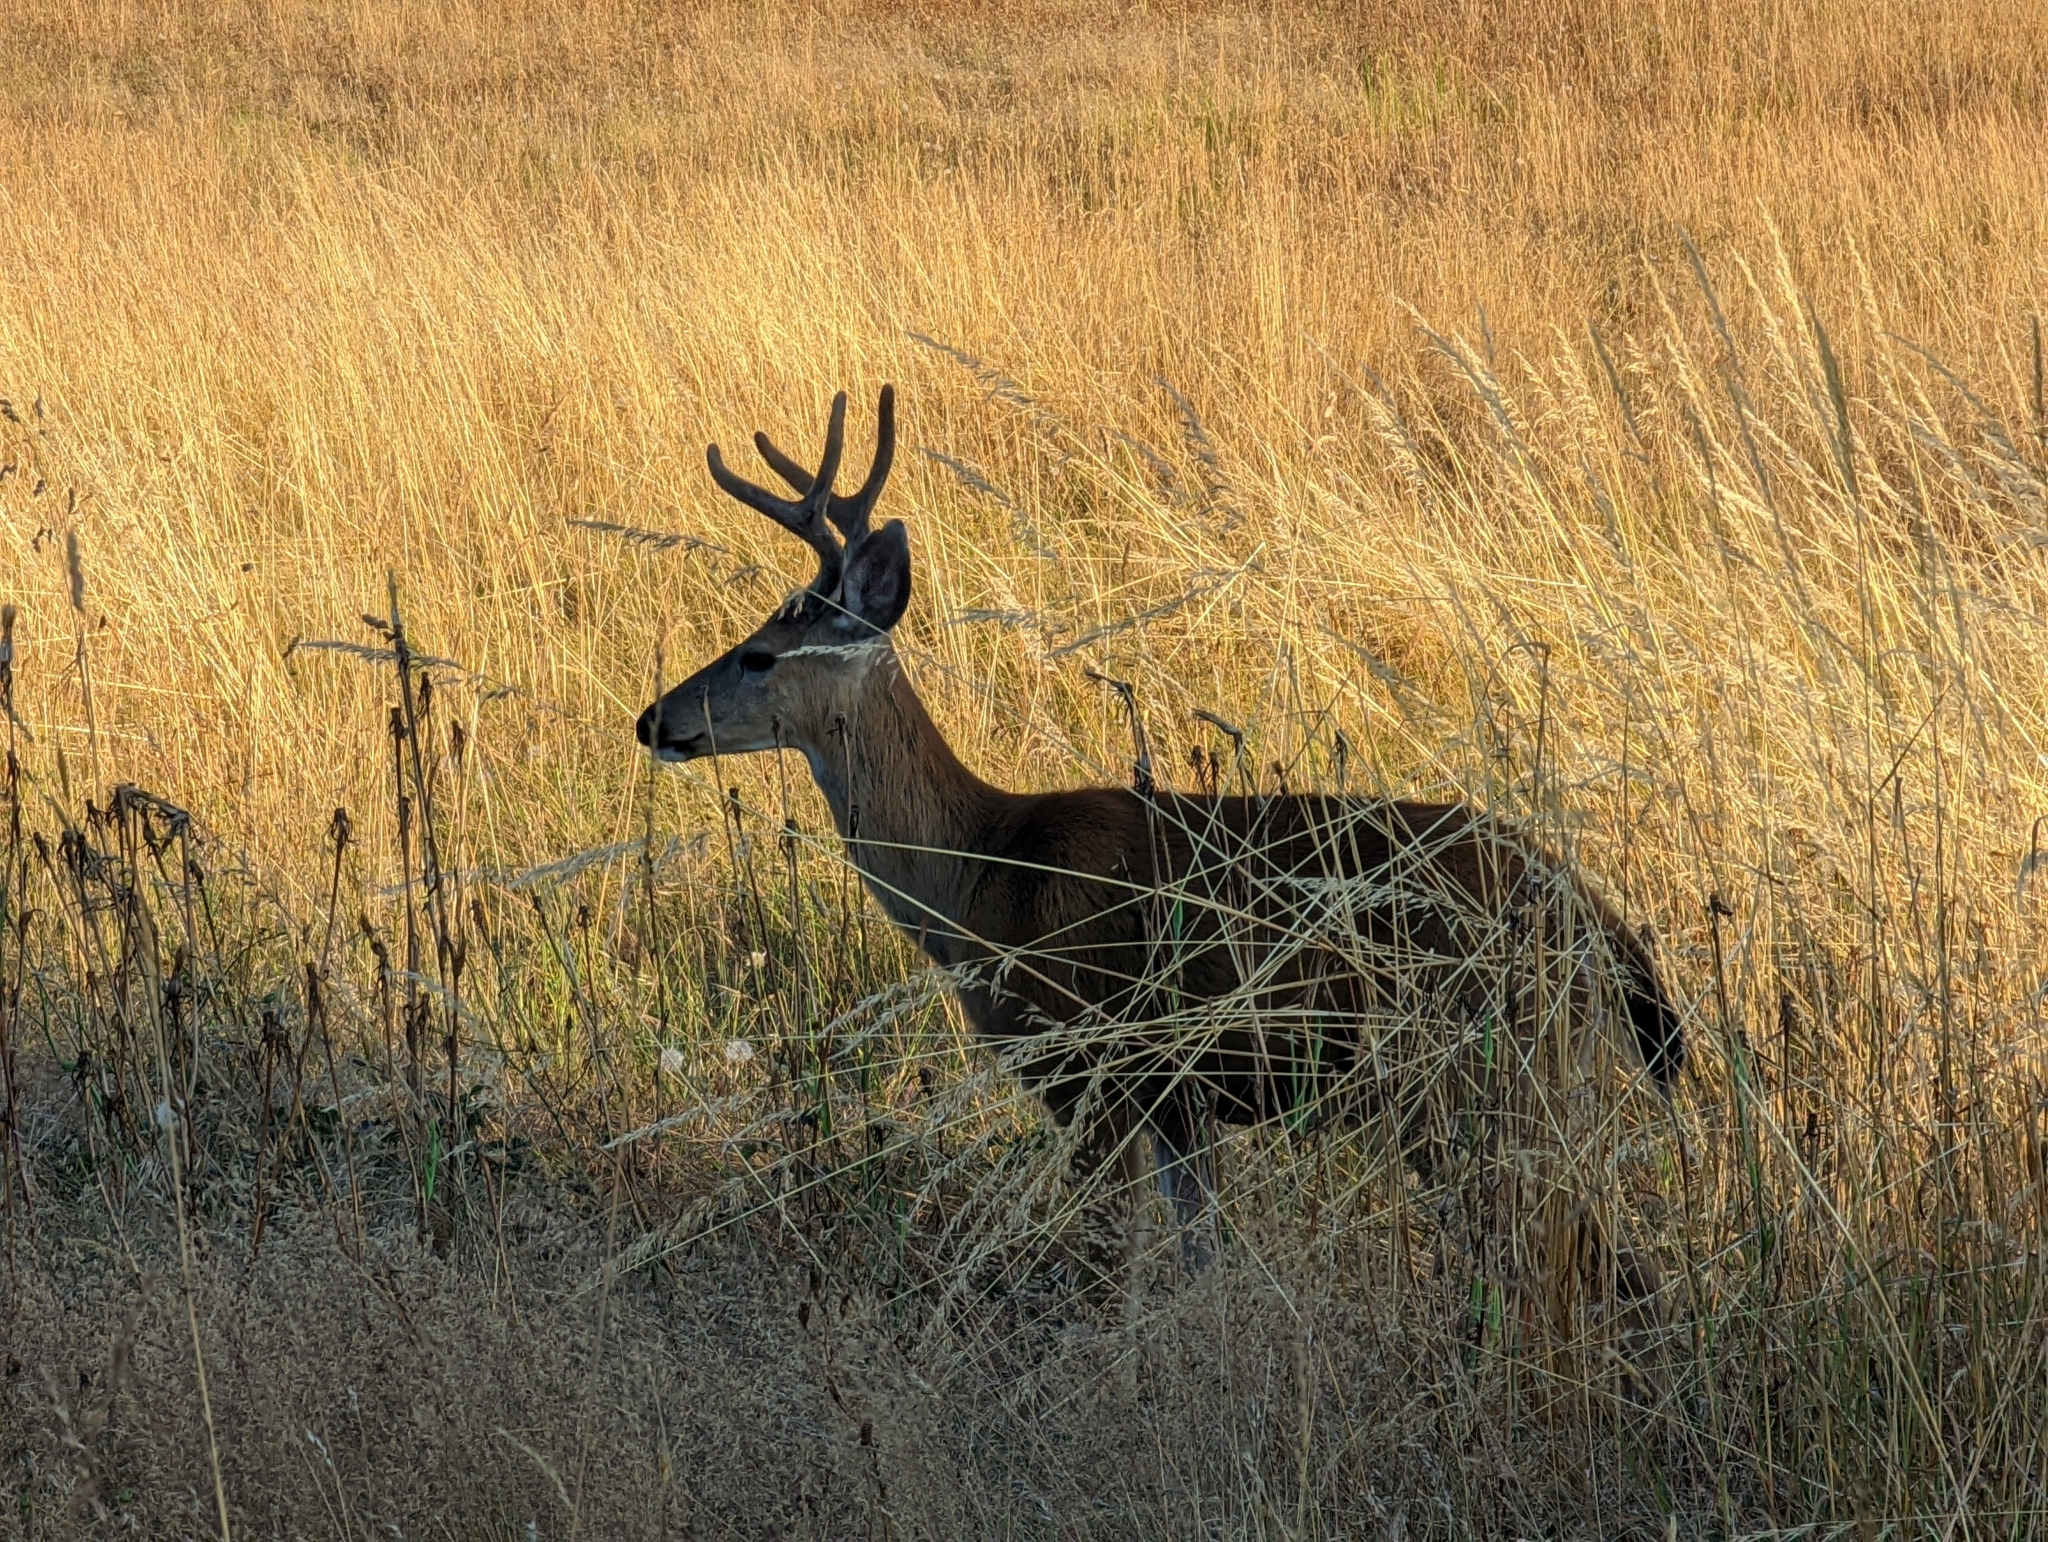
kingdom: Animalia
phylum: Chordata
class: Mammalia
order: Artiodactyla
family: Cervidae
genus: Odocoileus
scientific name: Odocoileus hemionus
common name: Mule deer
